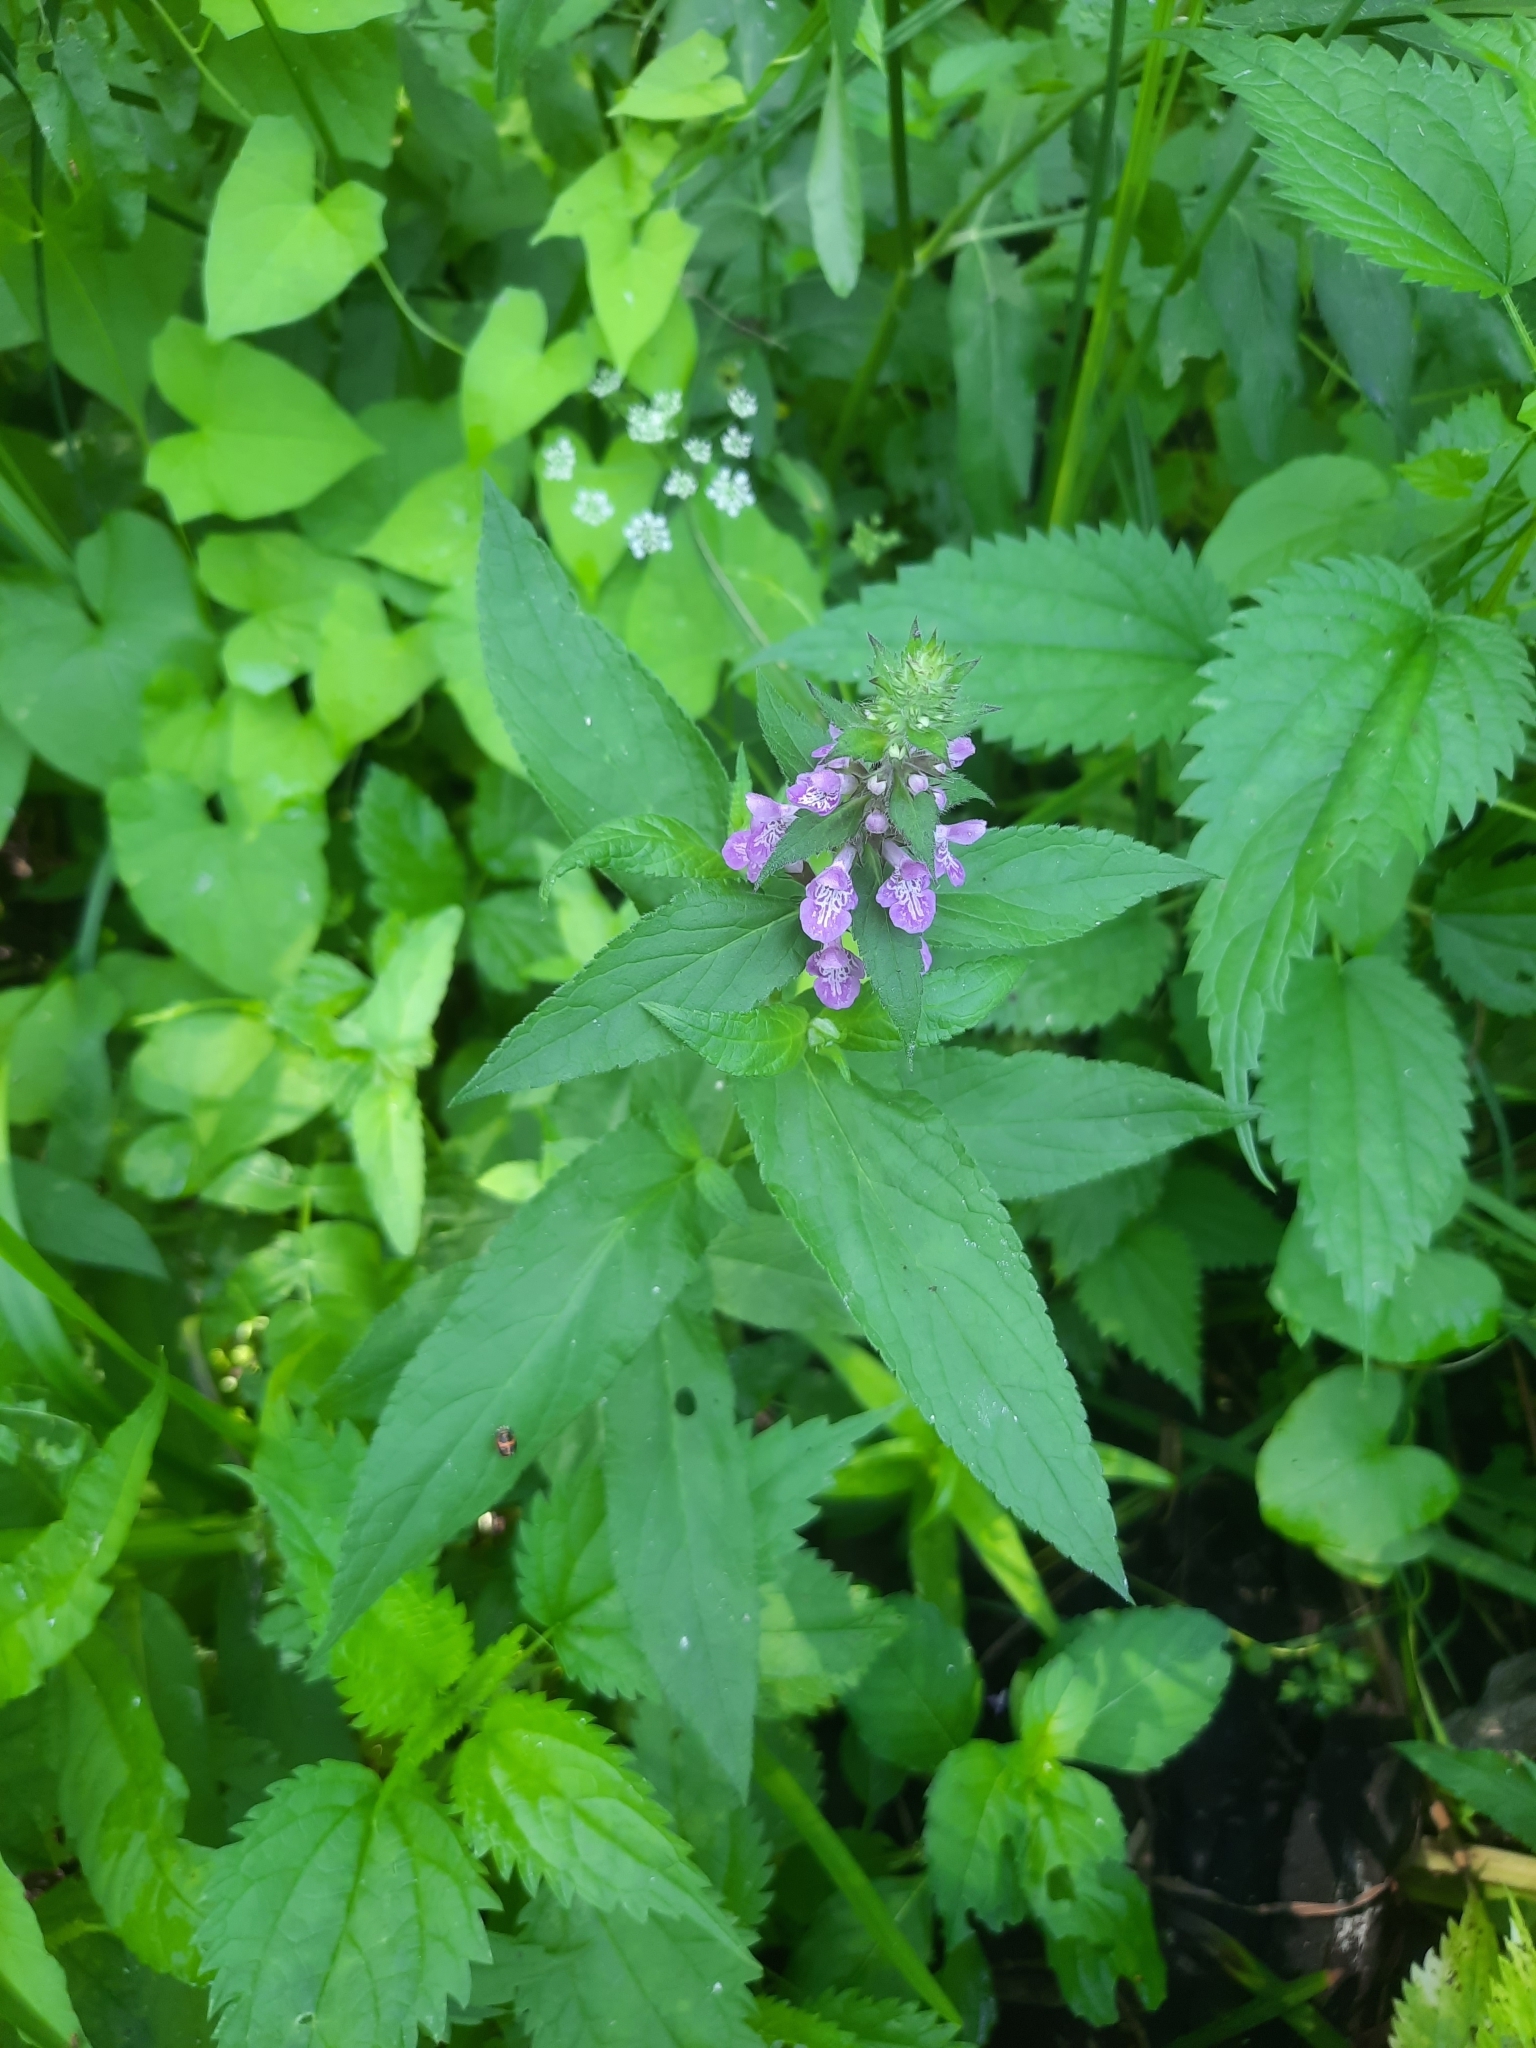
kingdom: Plantae
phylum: Tracheophyta
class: Magnoliopsida
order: Lamiales
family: Lamiaceae
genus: Stachys
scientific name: Stachys palustris
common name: Marsh woundwort
